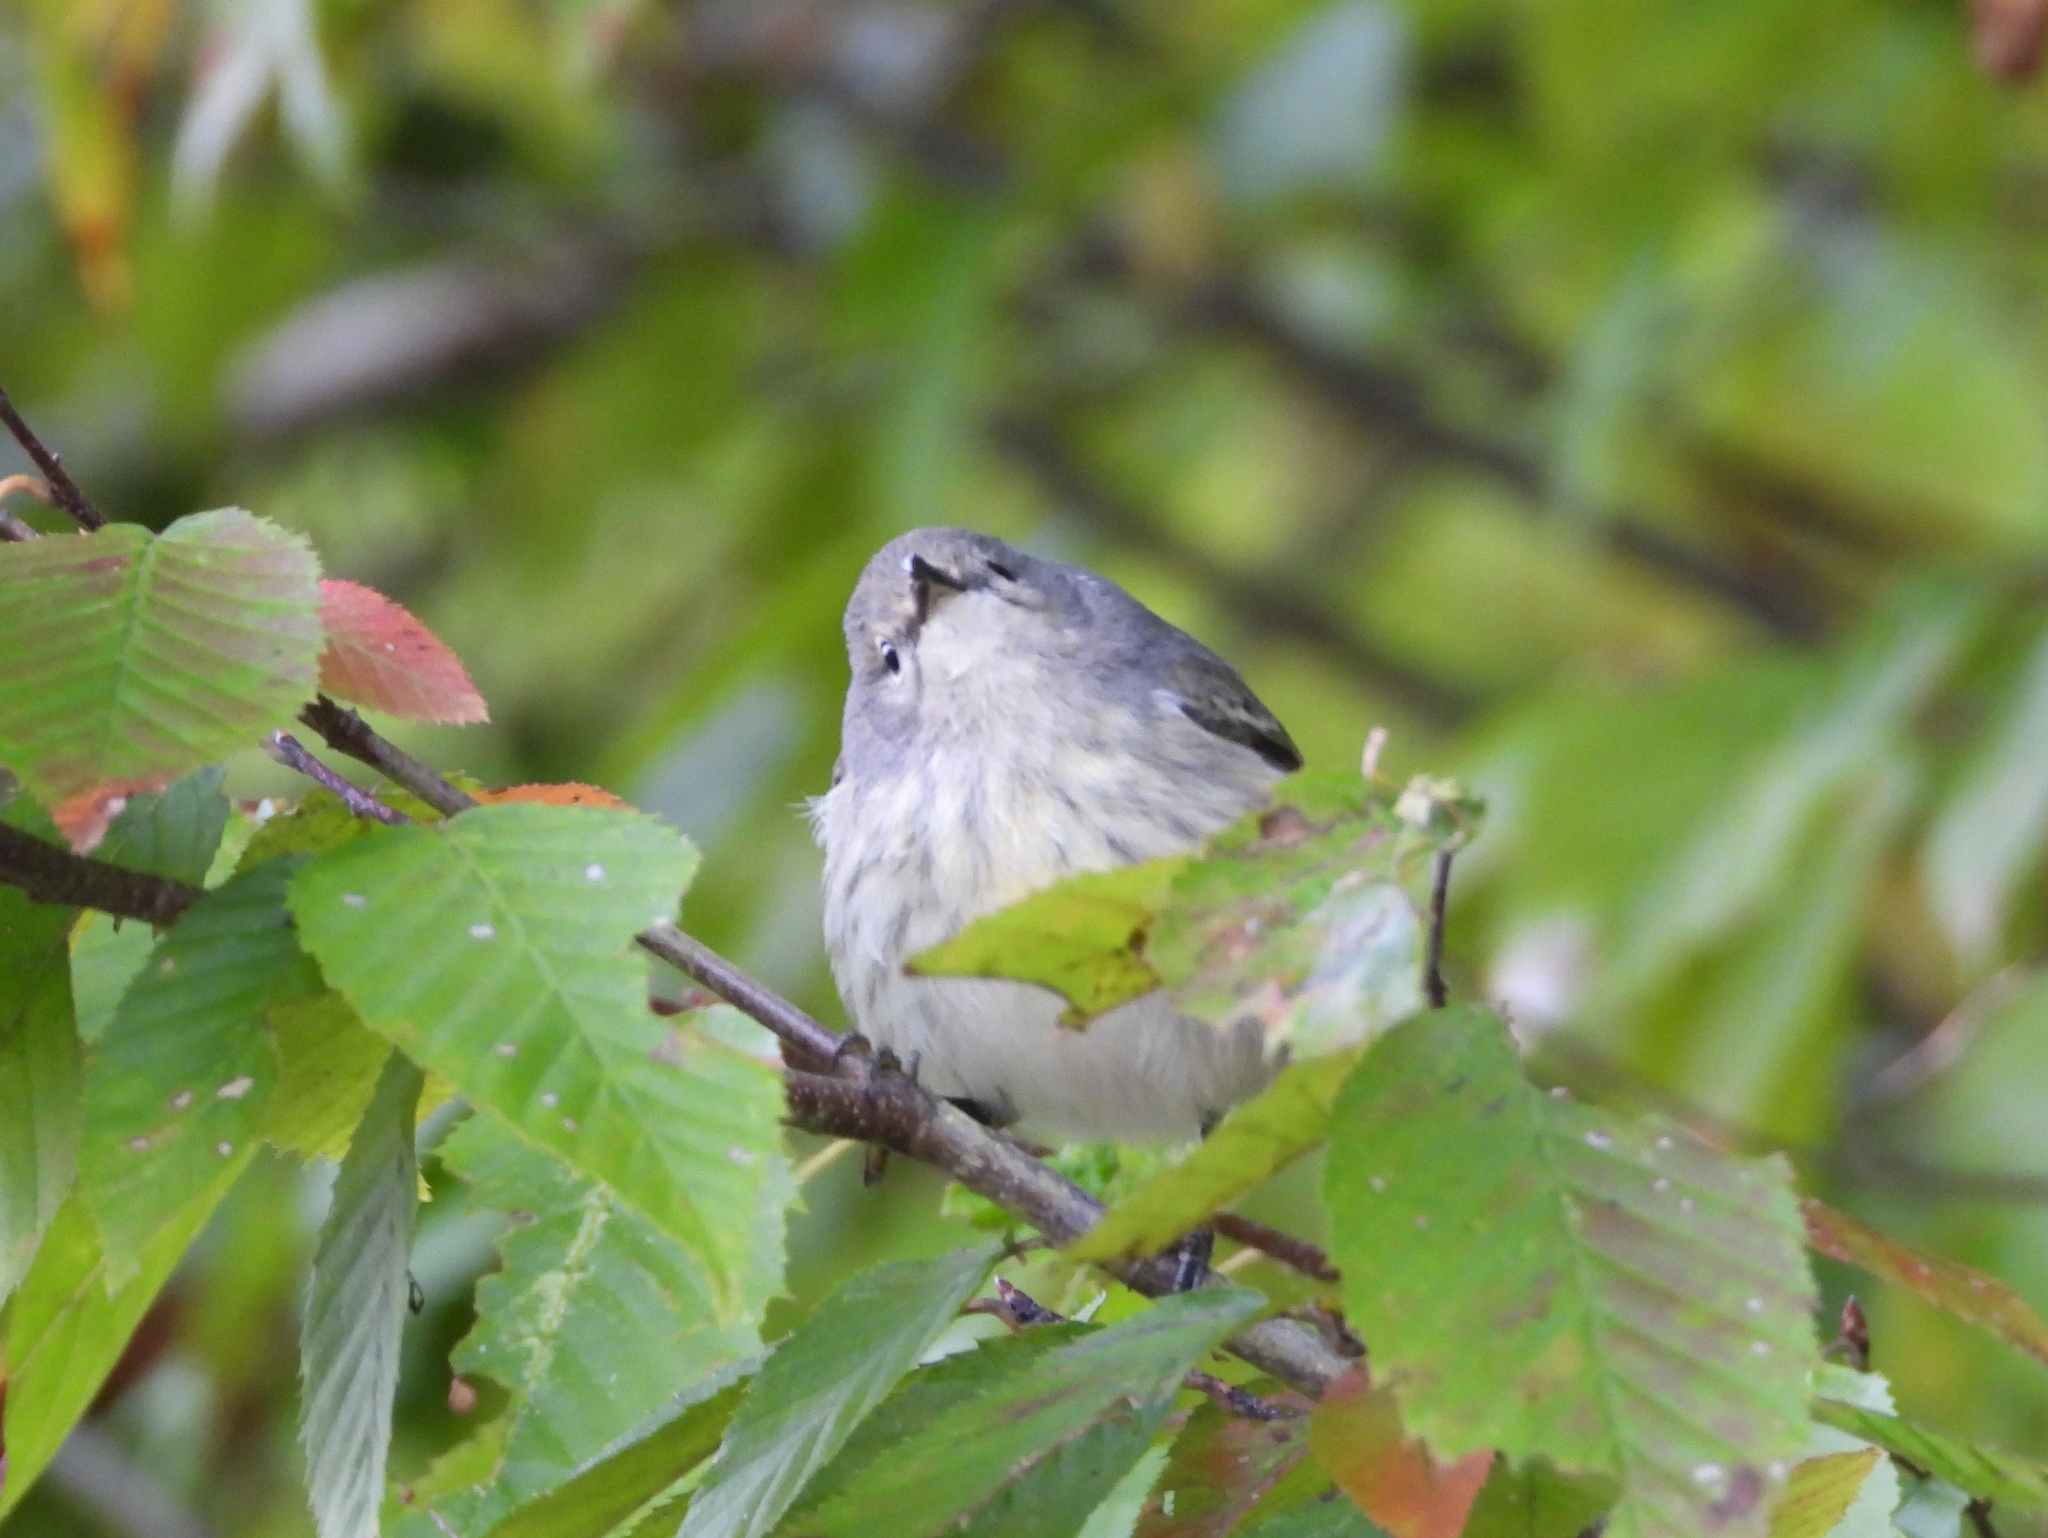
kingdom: Animalia
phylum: Chordata
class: Aves
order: Passeriformes
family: Parulidae
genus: Setophaga
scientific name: Setophaga tigrina
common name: Cape may warbler
